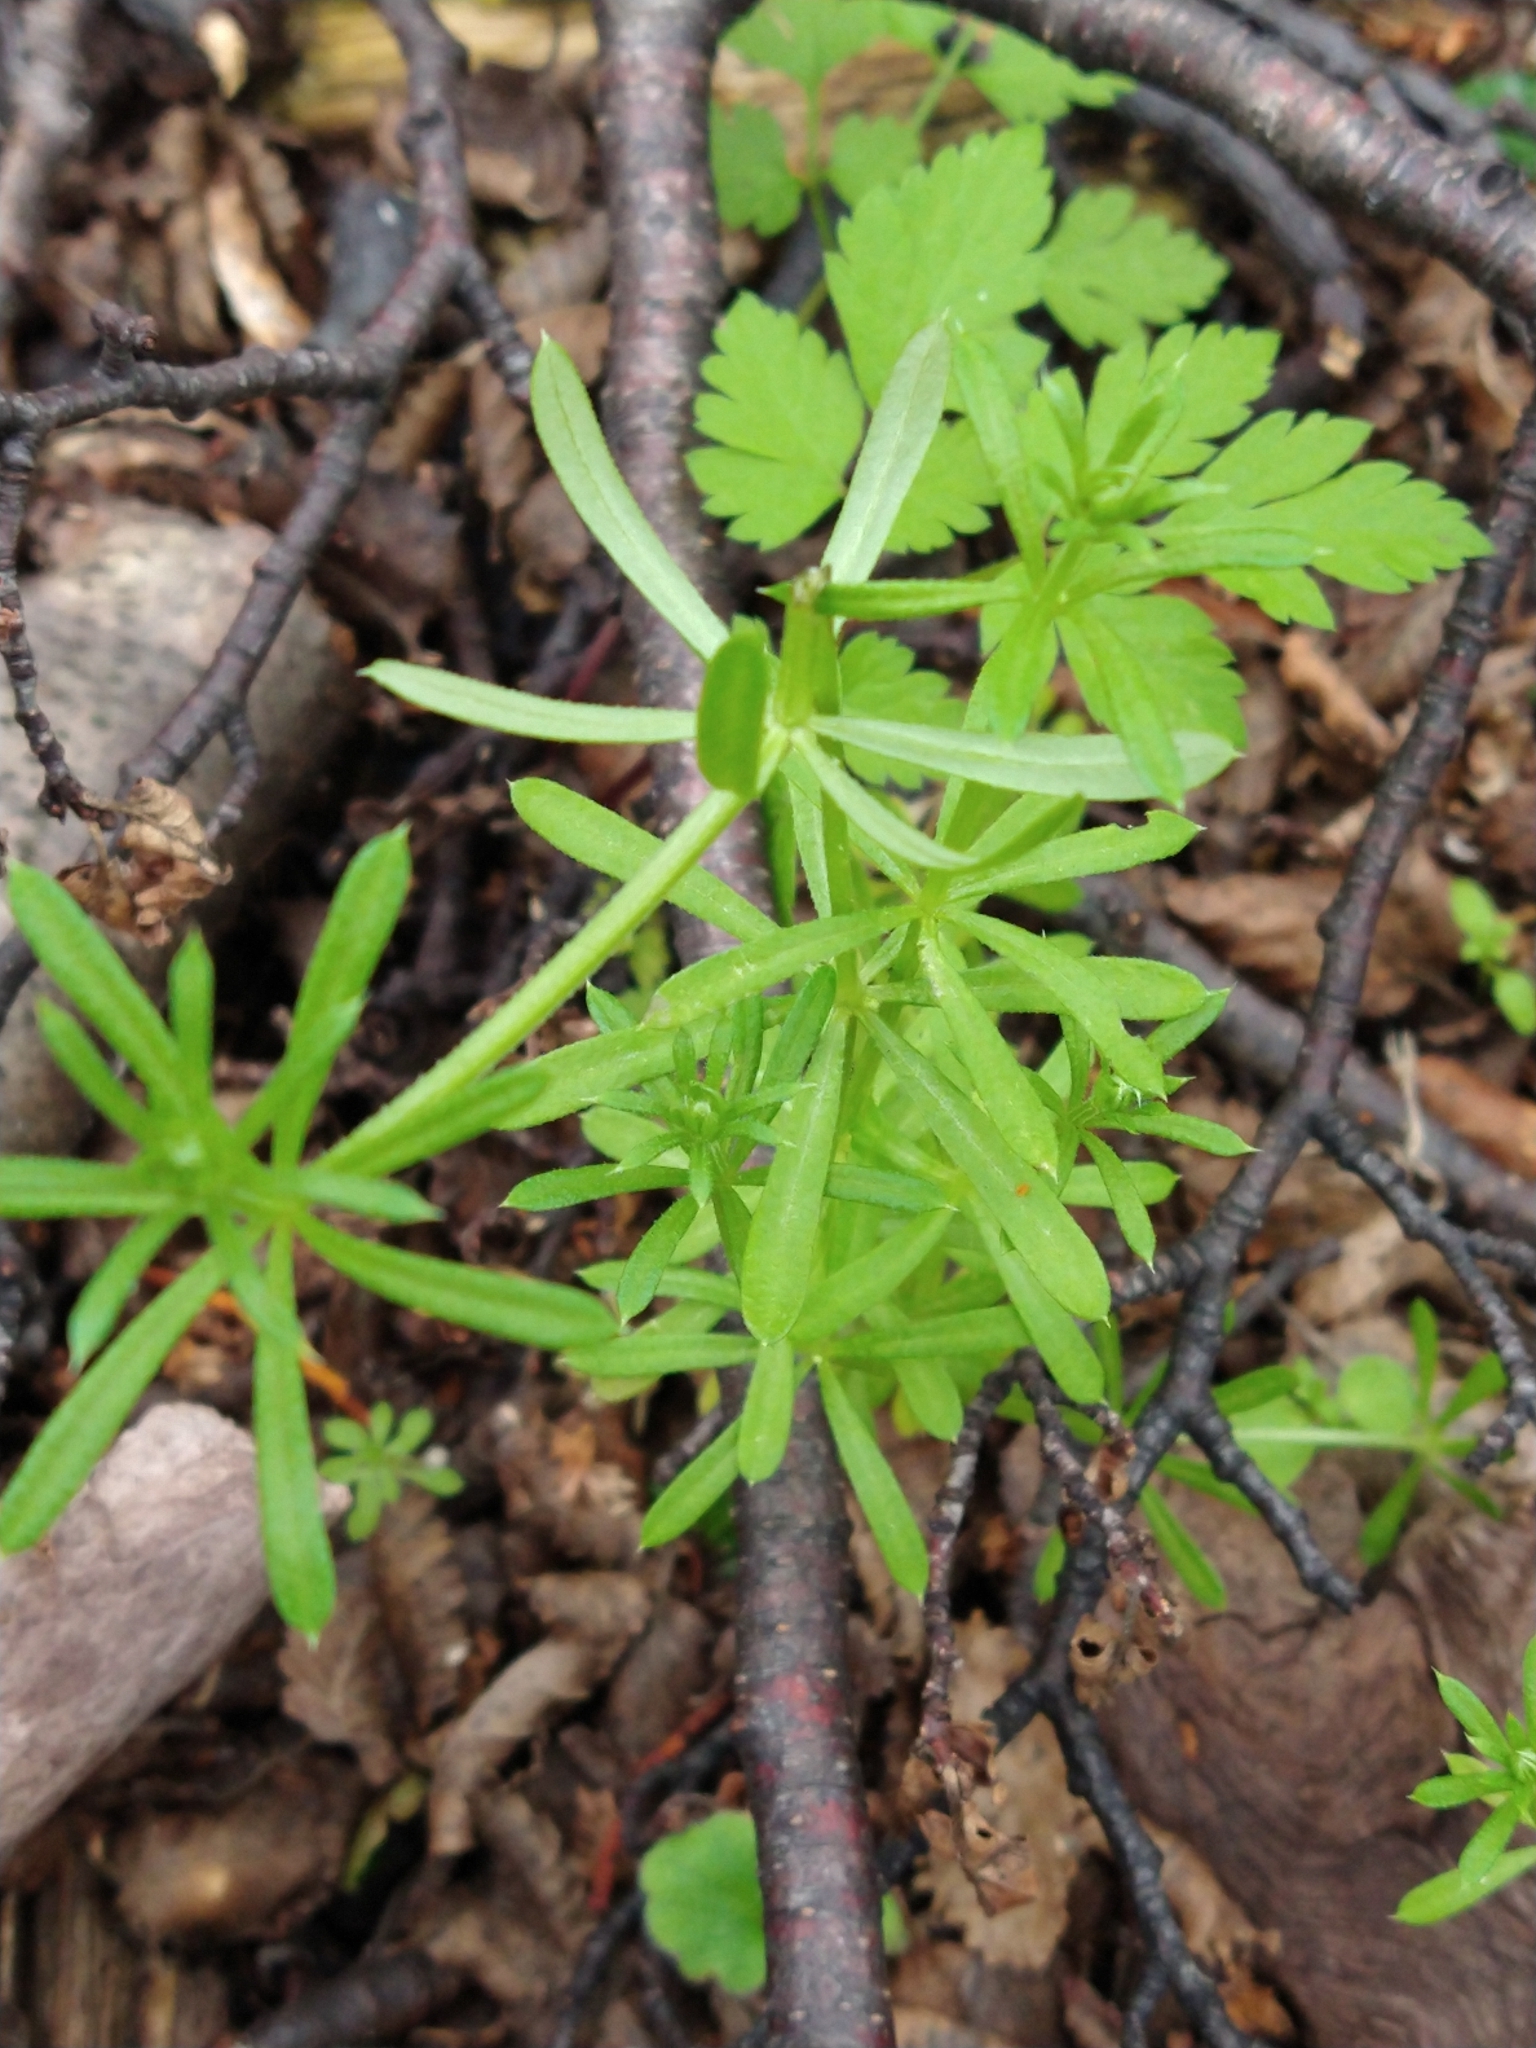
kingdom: Plantae
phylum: Tracheophyta
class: Magnoliopsida
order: Gentianales
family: Rubiaceae
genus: Galium
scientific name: Galium aparine
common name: Cleavers
